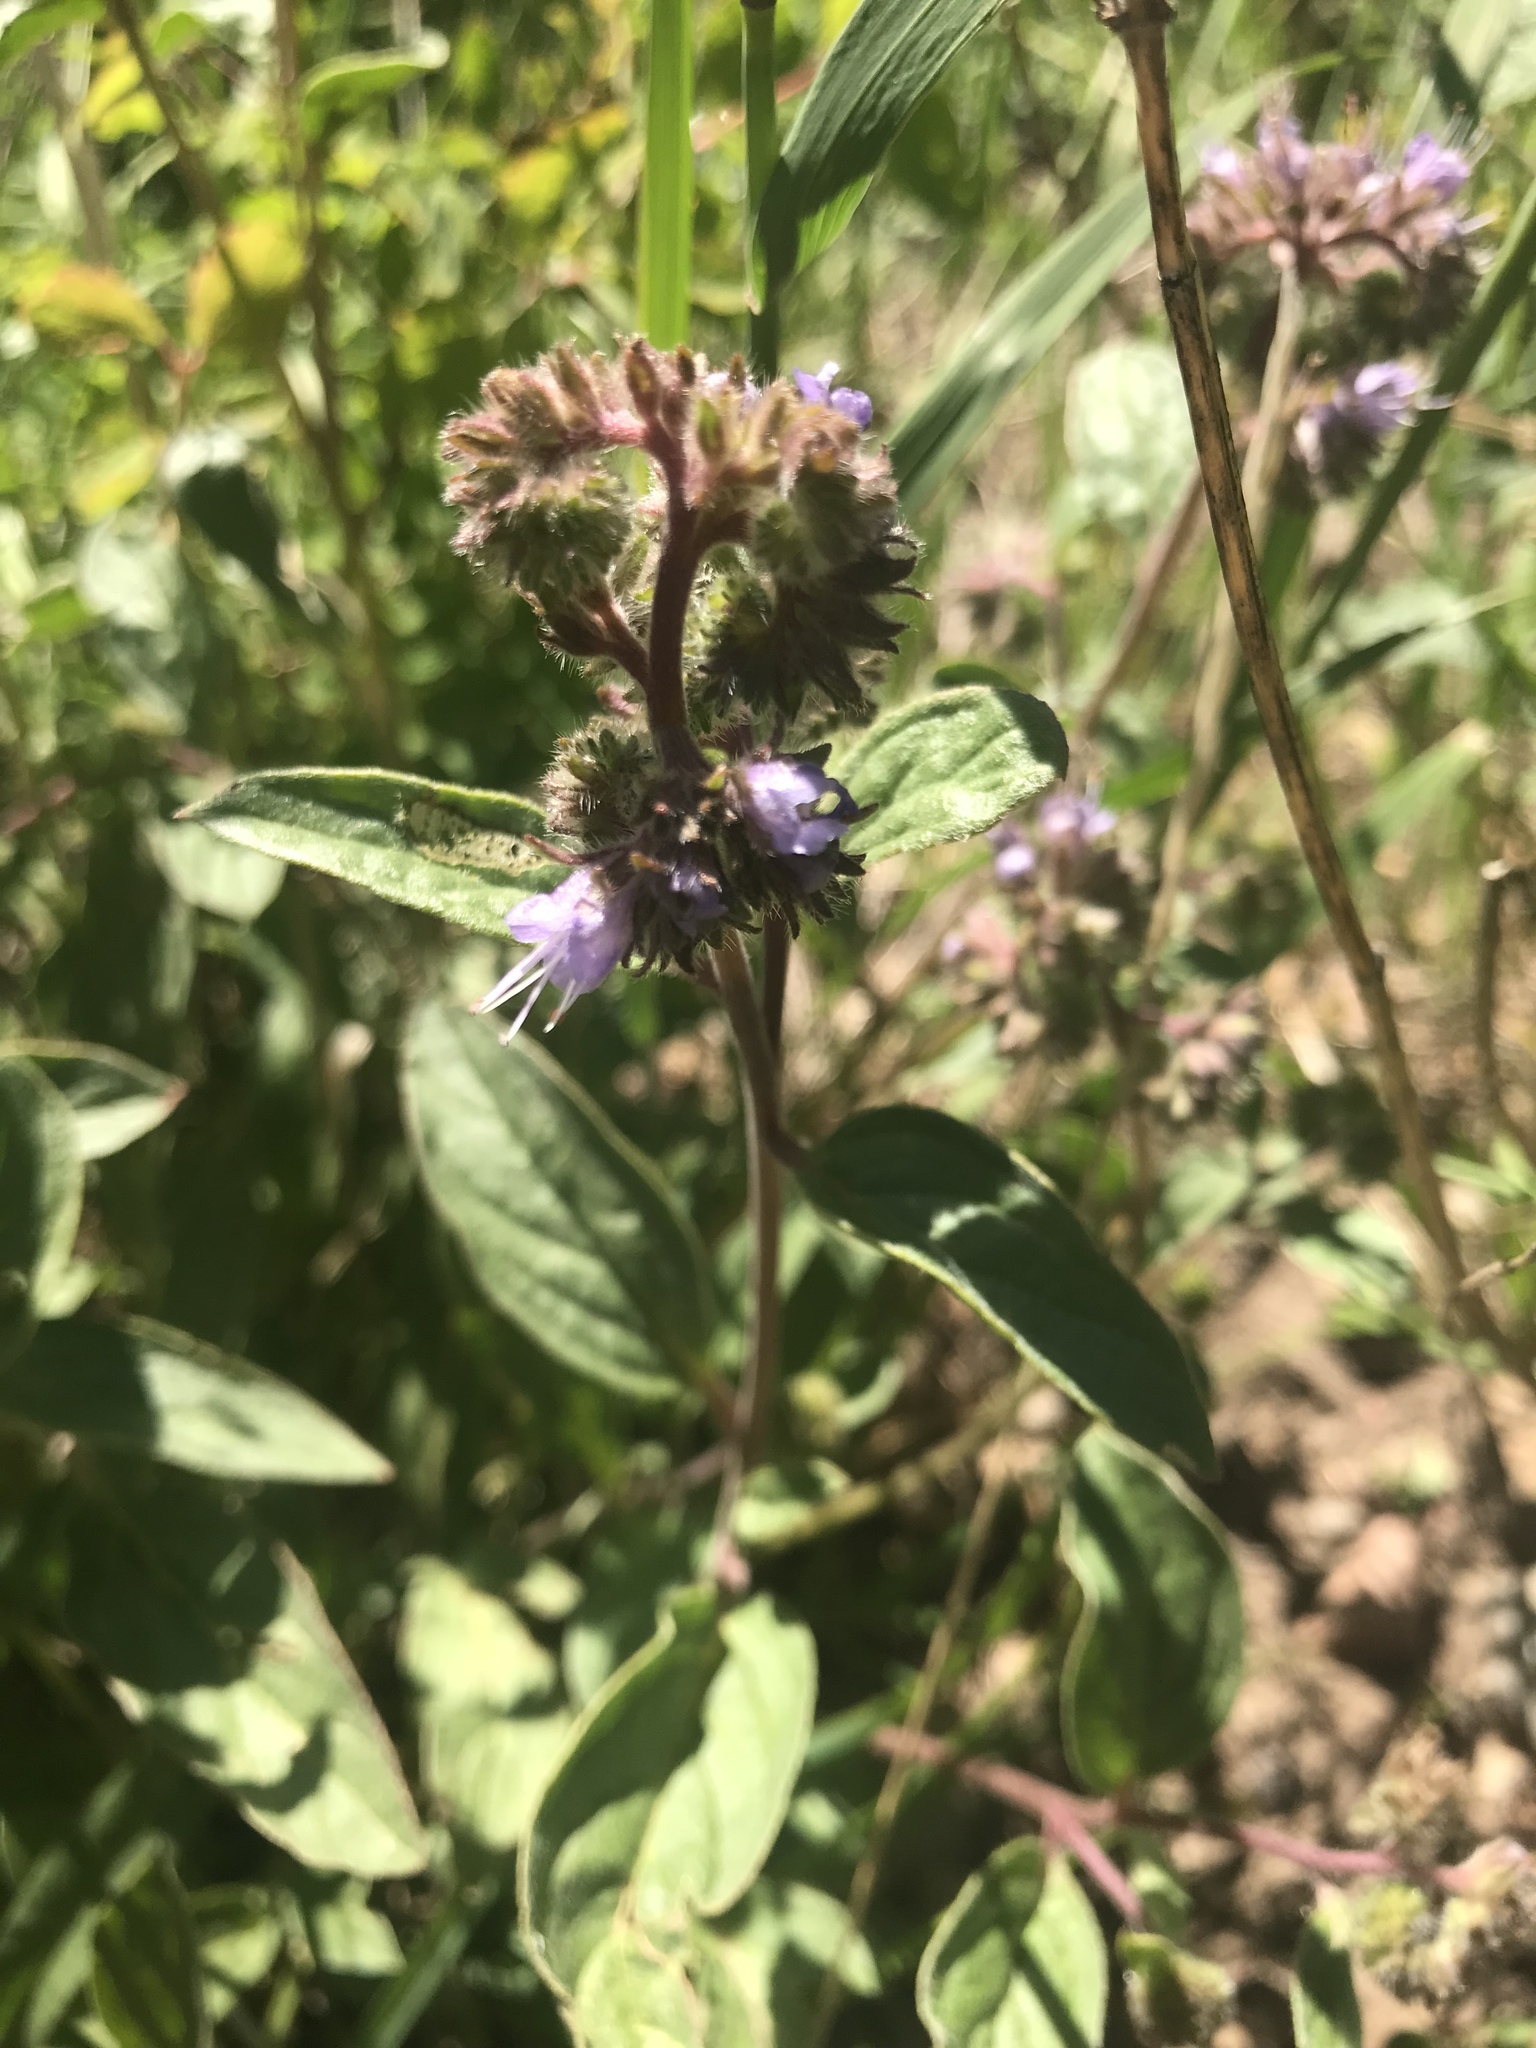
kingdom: Plantae
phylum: Tracheophyta
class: Magnoliopsida
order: Boraginales
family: Hydrophyllaceae
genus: Phacelia
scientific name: Phacelia hastata
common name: Silver-leaved phacelia
